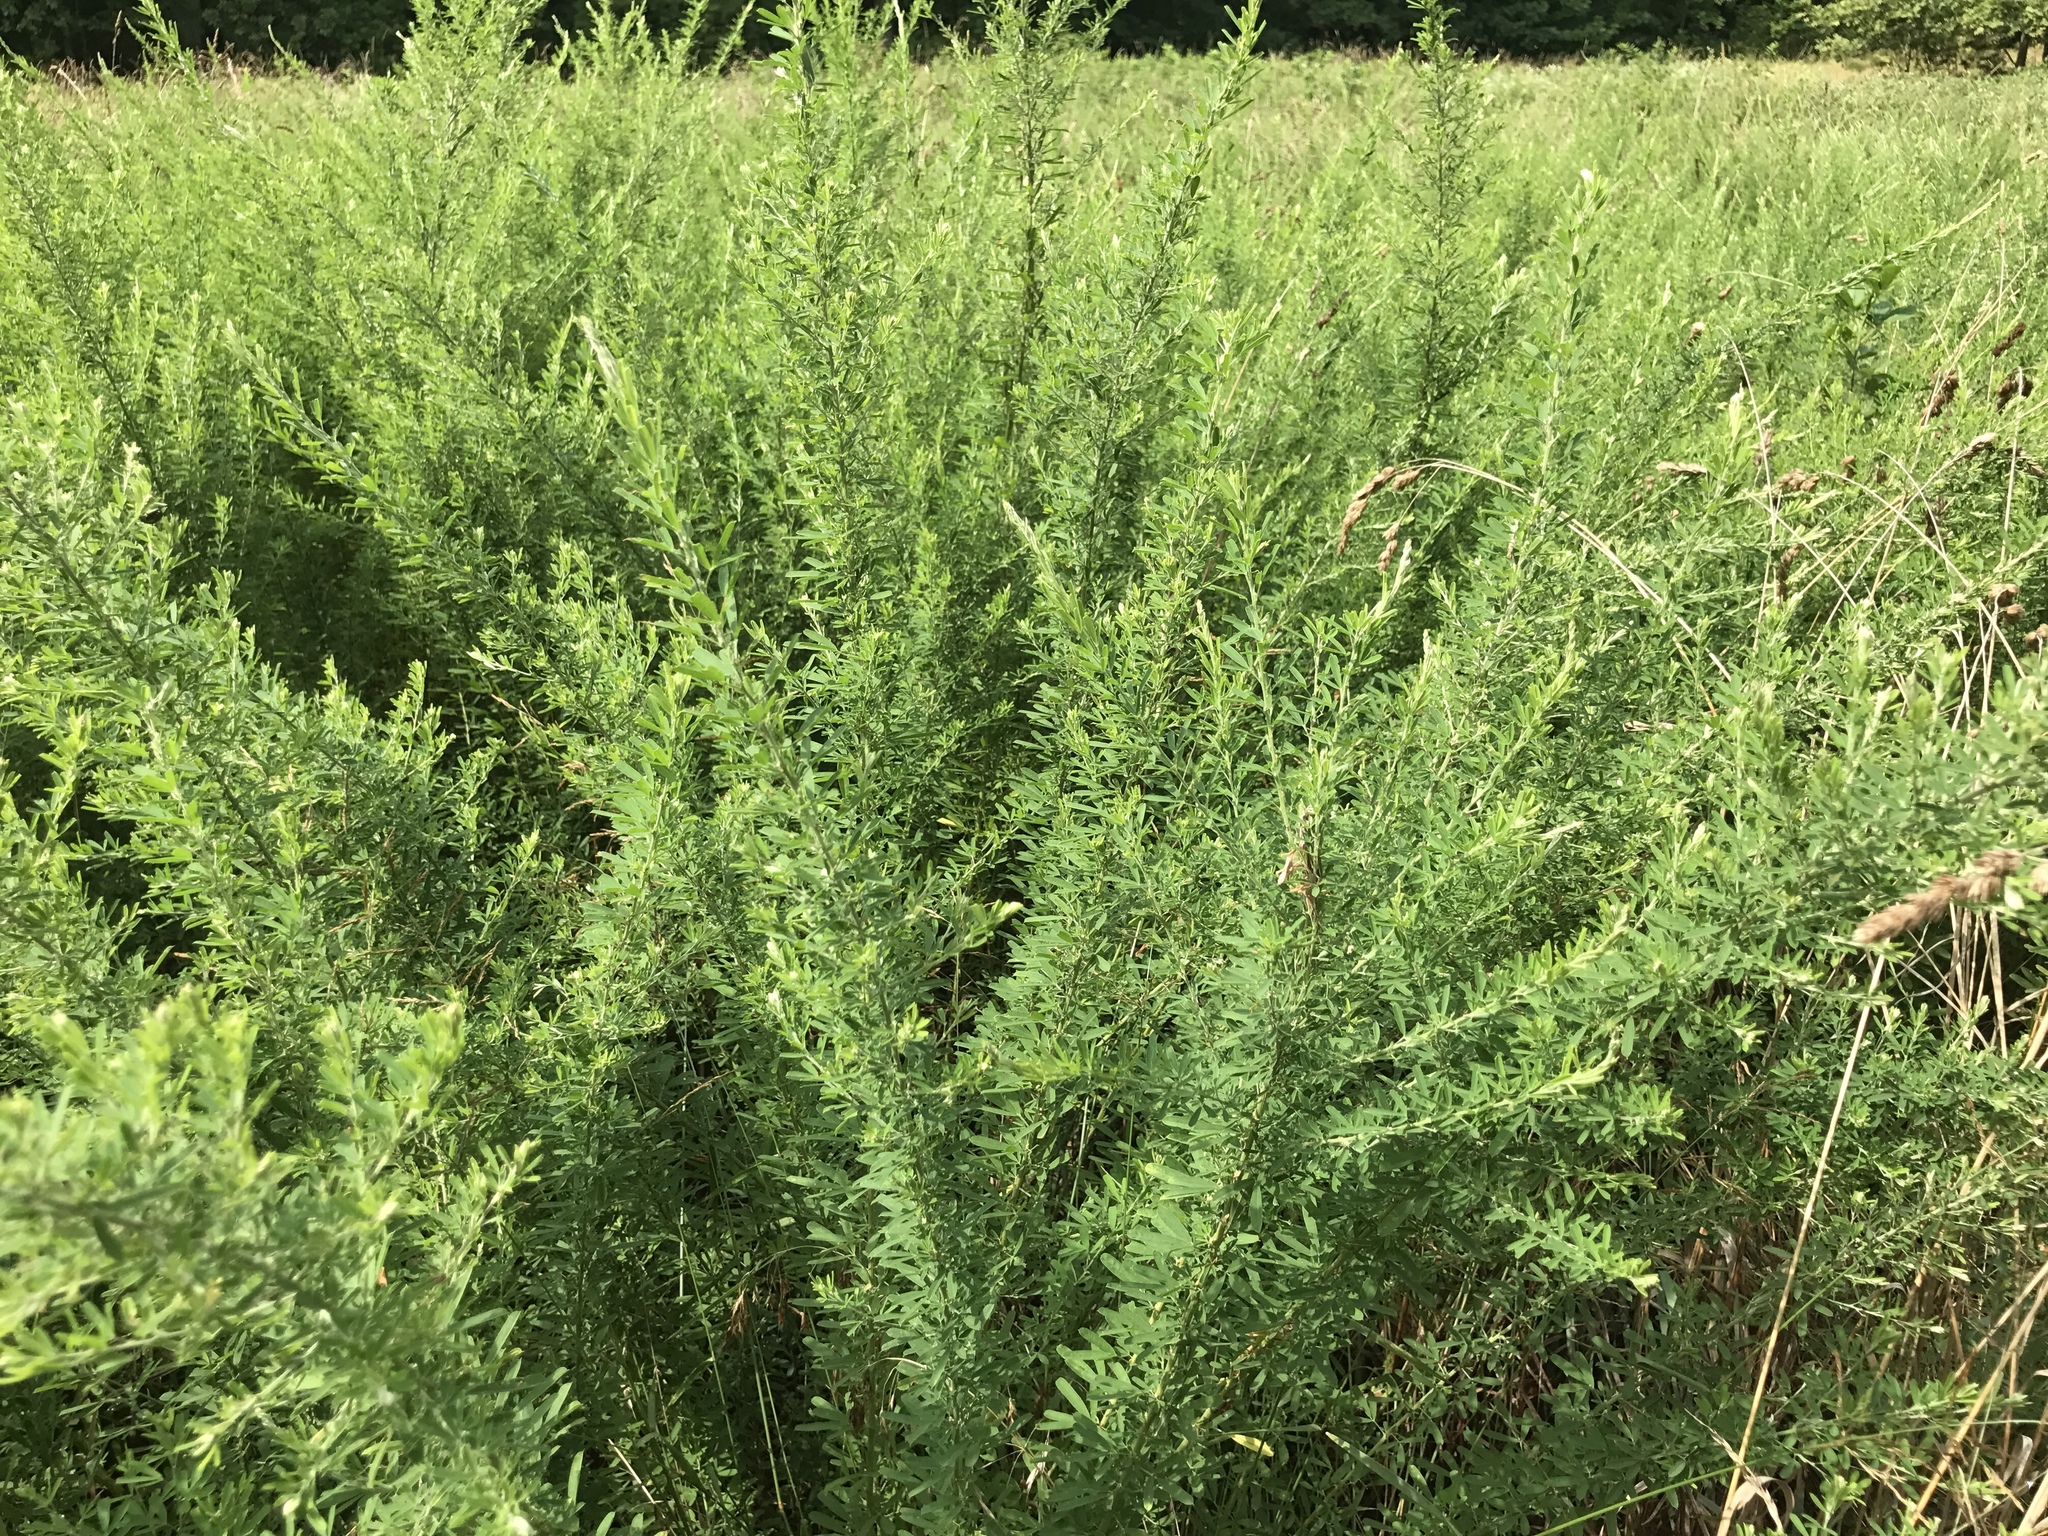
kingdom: Plantae
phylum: Tracheophyta
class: Magnoliopsida
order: Fabales
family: Fabaceae
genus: Lespedeza
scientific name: Lespedeza cuneata
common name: Chinese bush-clover
